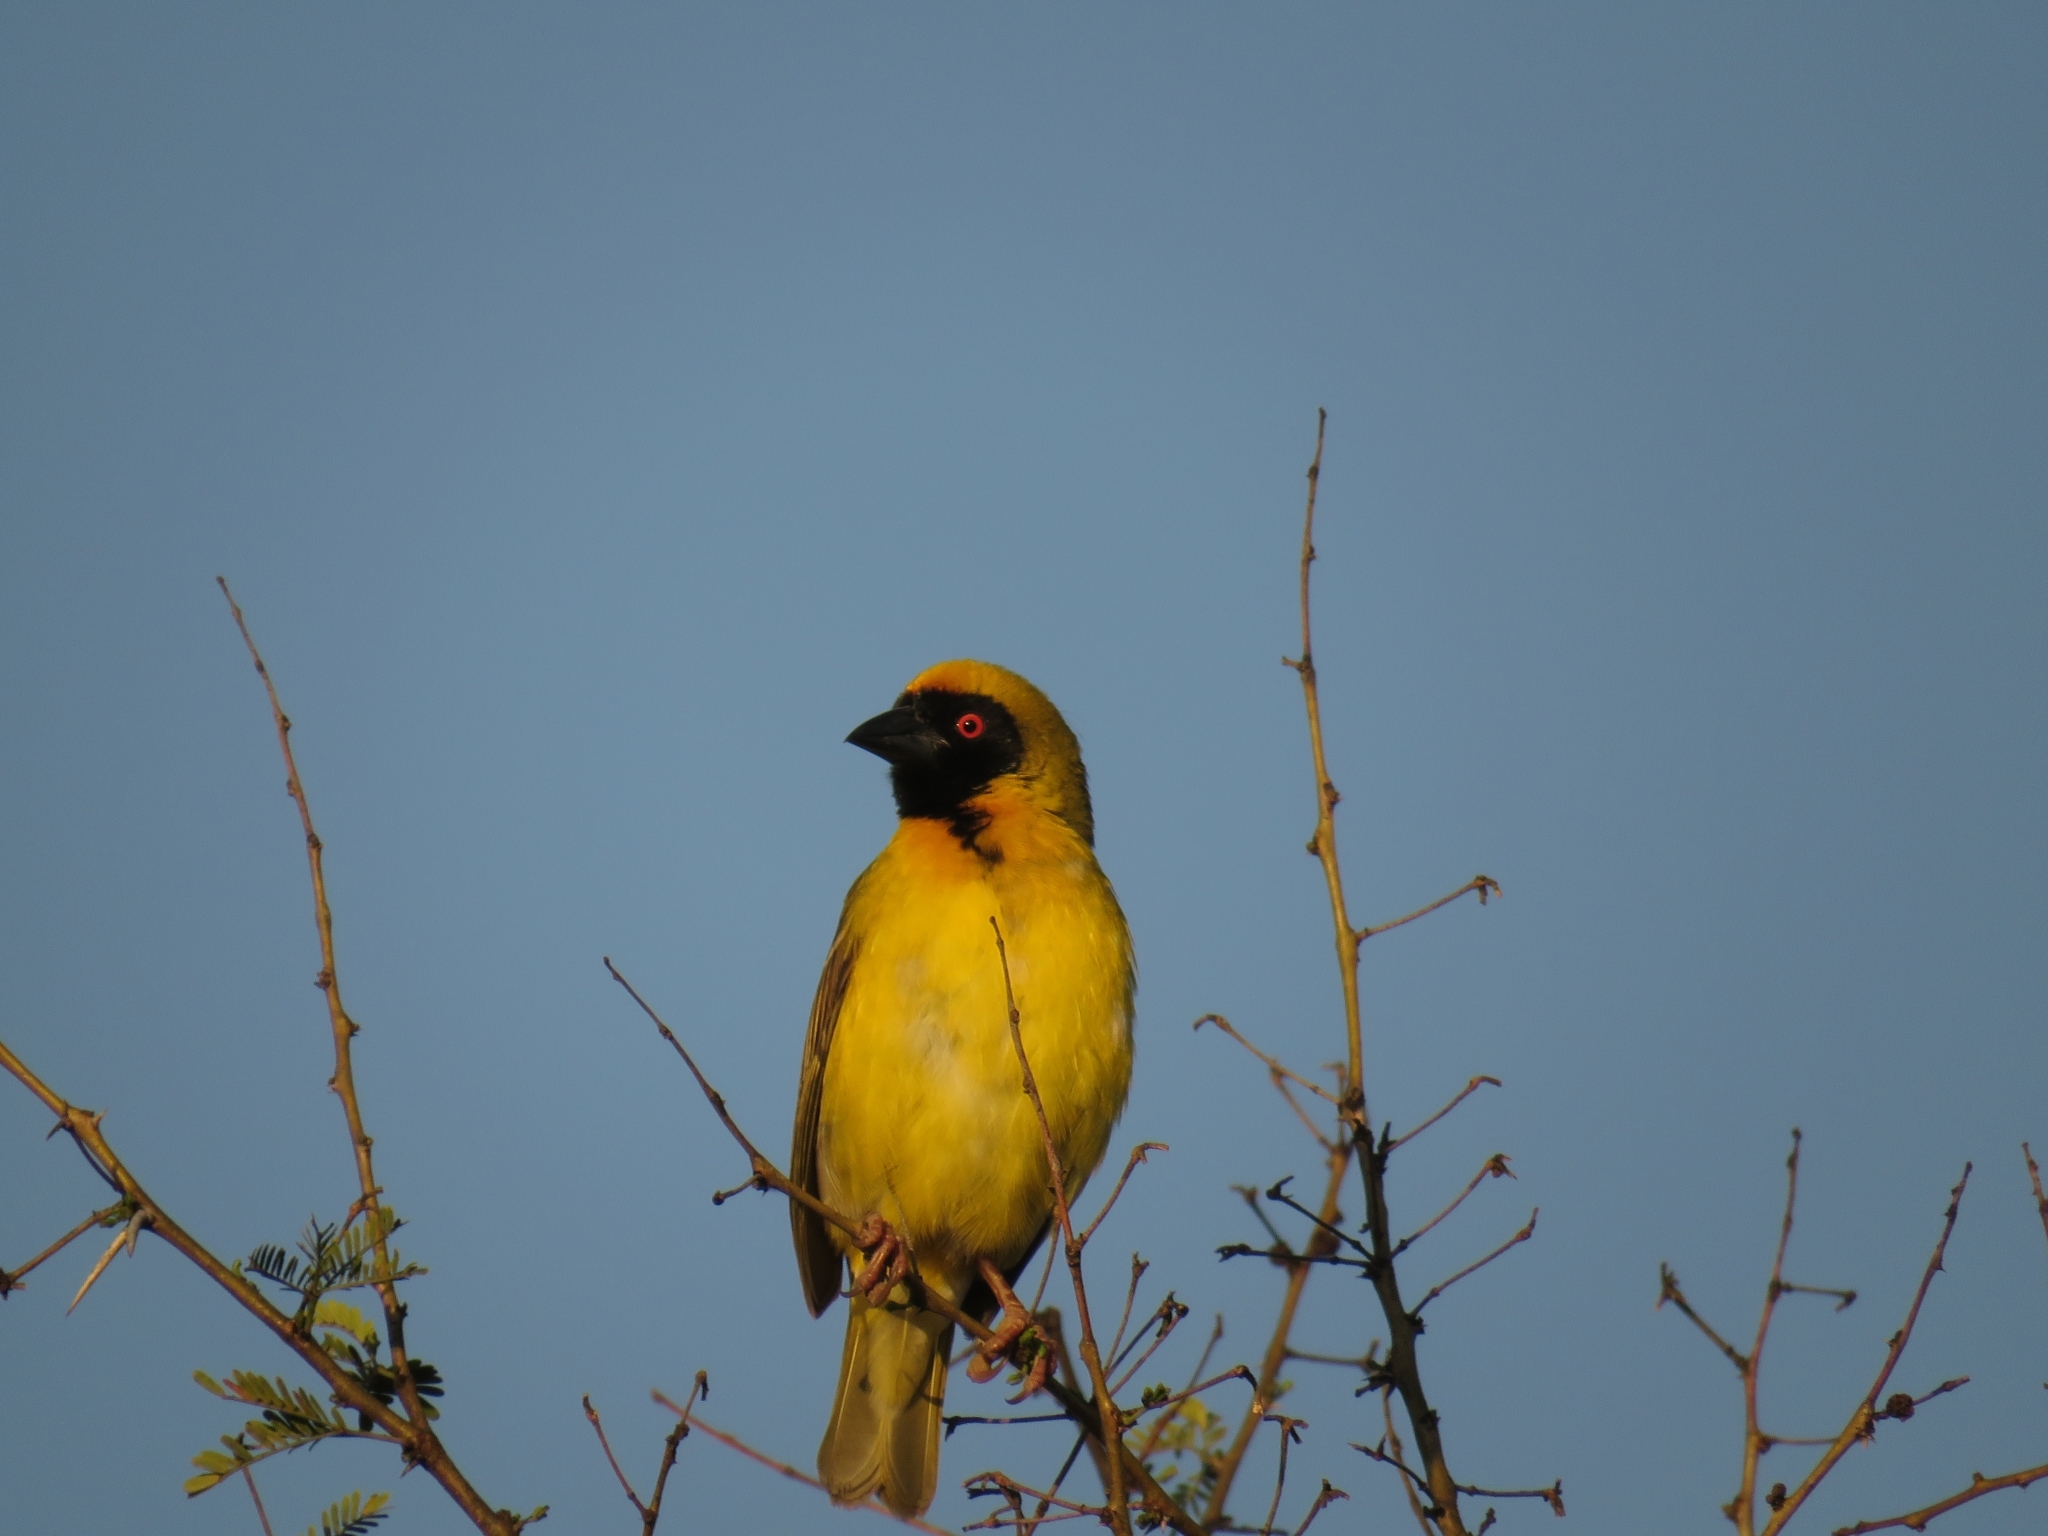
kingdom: Animalia
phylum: Chordata
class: Aves
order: Passeriformes
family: Ploceidae
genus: Ploceus
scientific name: Ploceus velatus
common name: Southern masked weaver
